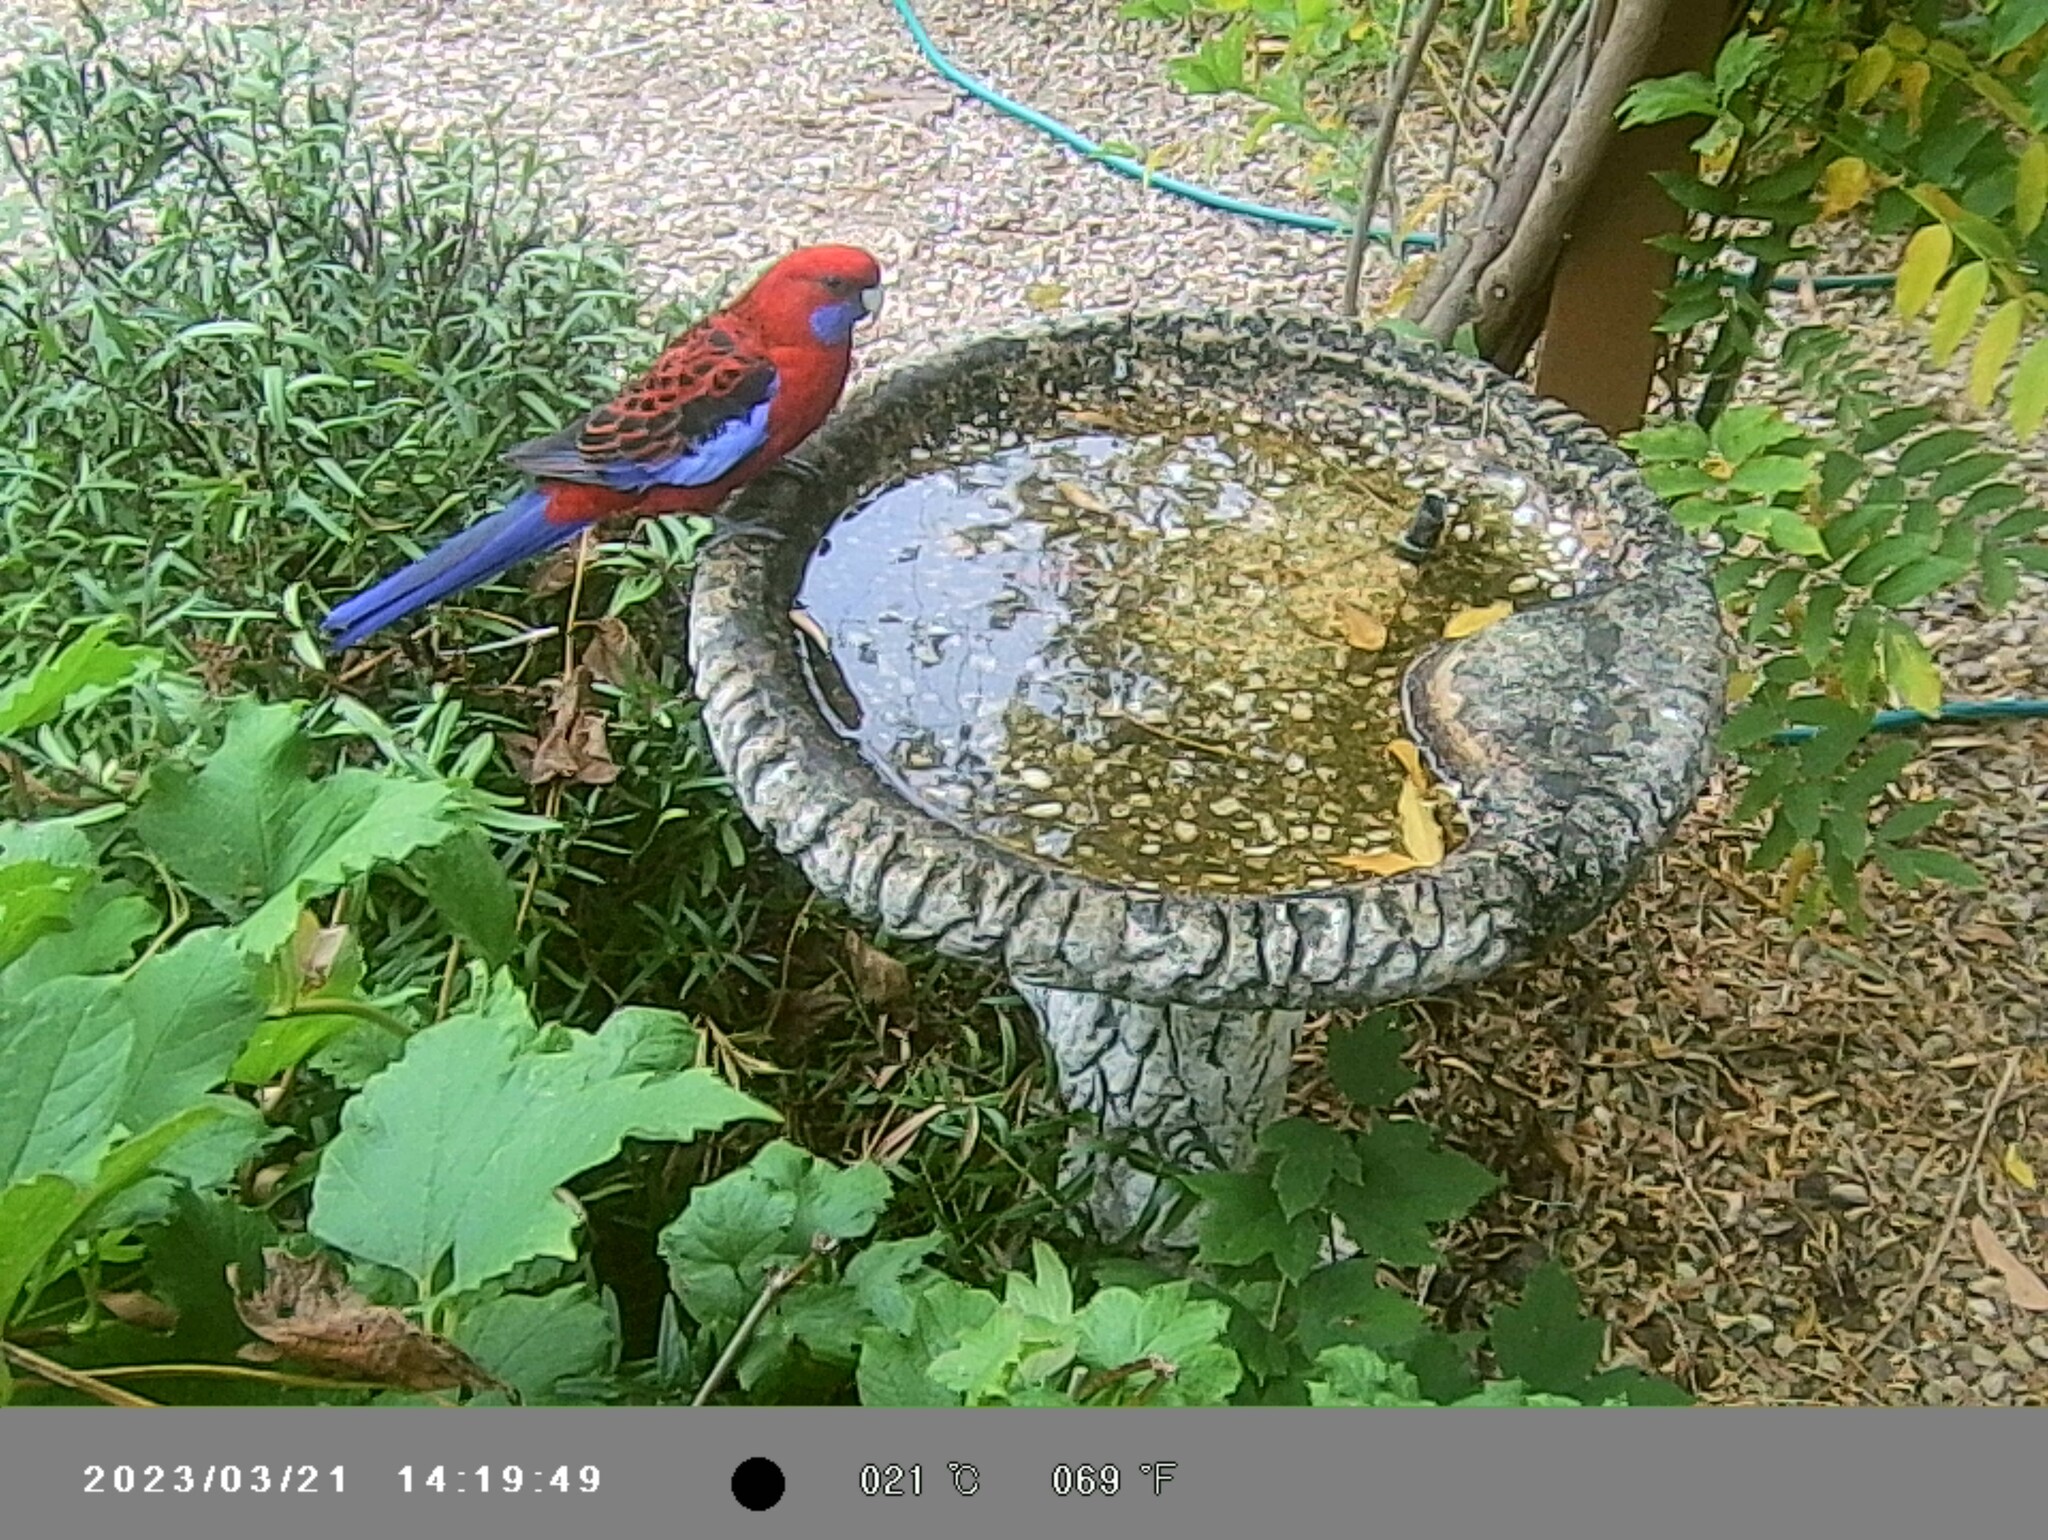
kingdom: Animalia
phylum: Chordata
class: Aves
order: Psittaciformes
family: Psittacidae
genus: Platycercus
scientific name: Platycercus elegans
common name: Crimson rosella
